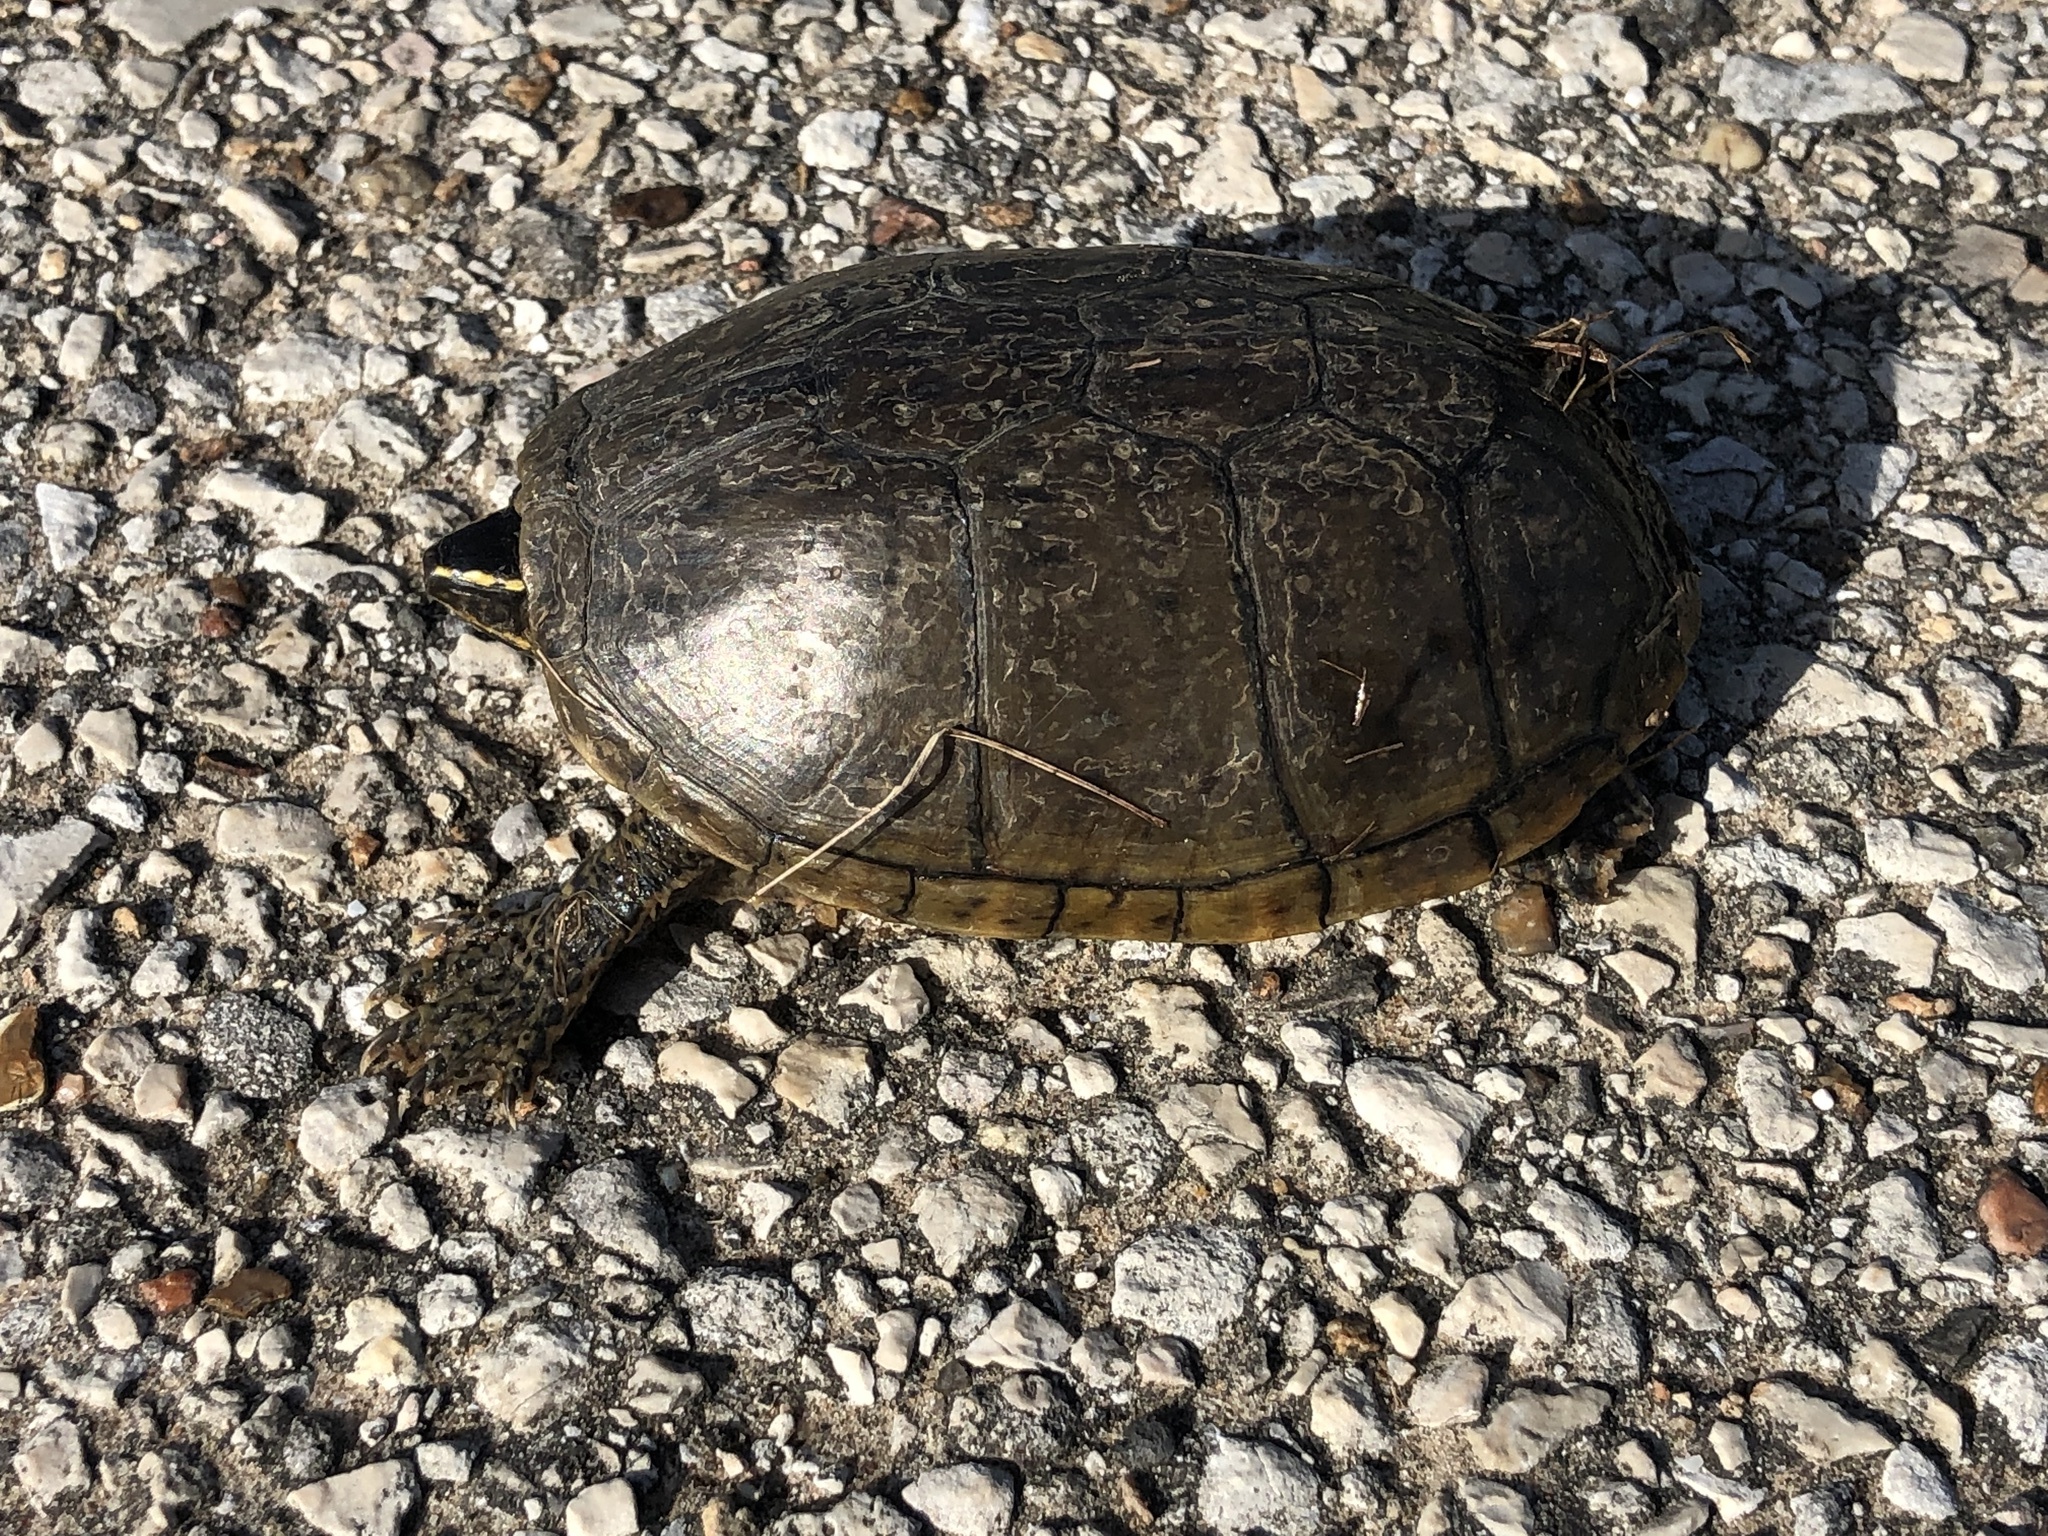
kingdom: Animalia
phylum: Chordata
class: Testudines
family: Kinosternidae
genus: Sternotherus
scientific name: Sternotherus odoratus
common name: Common musk turtle
